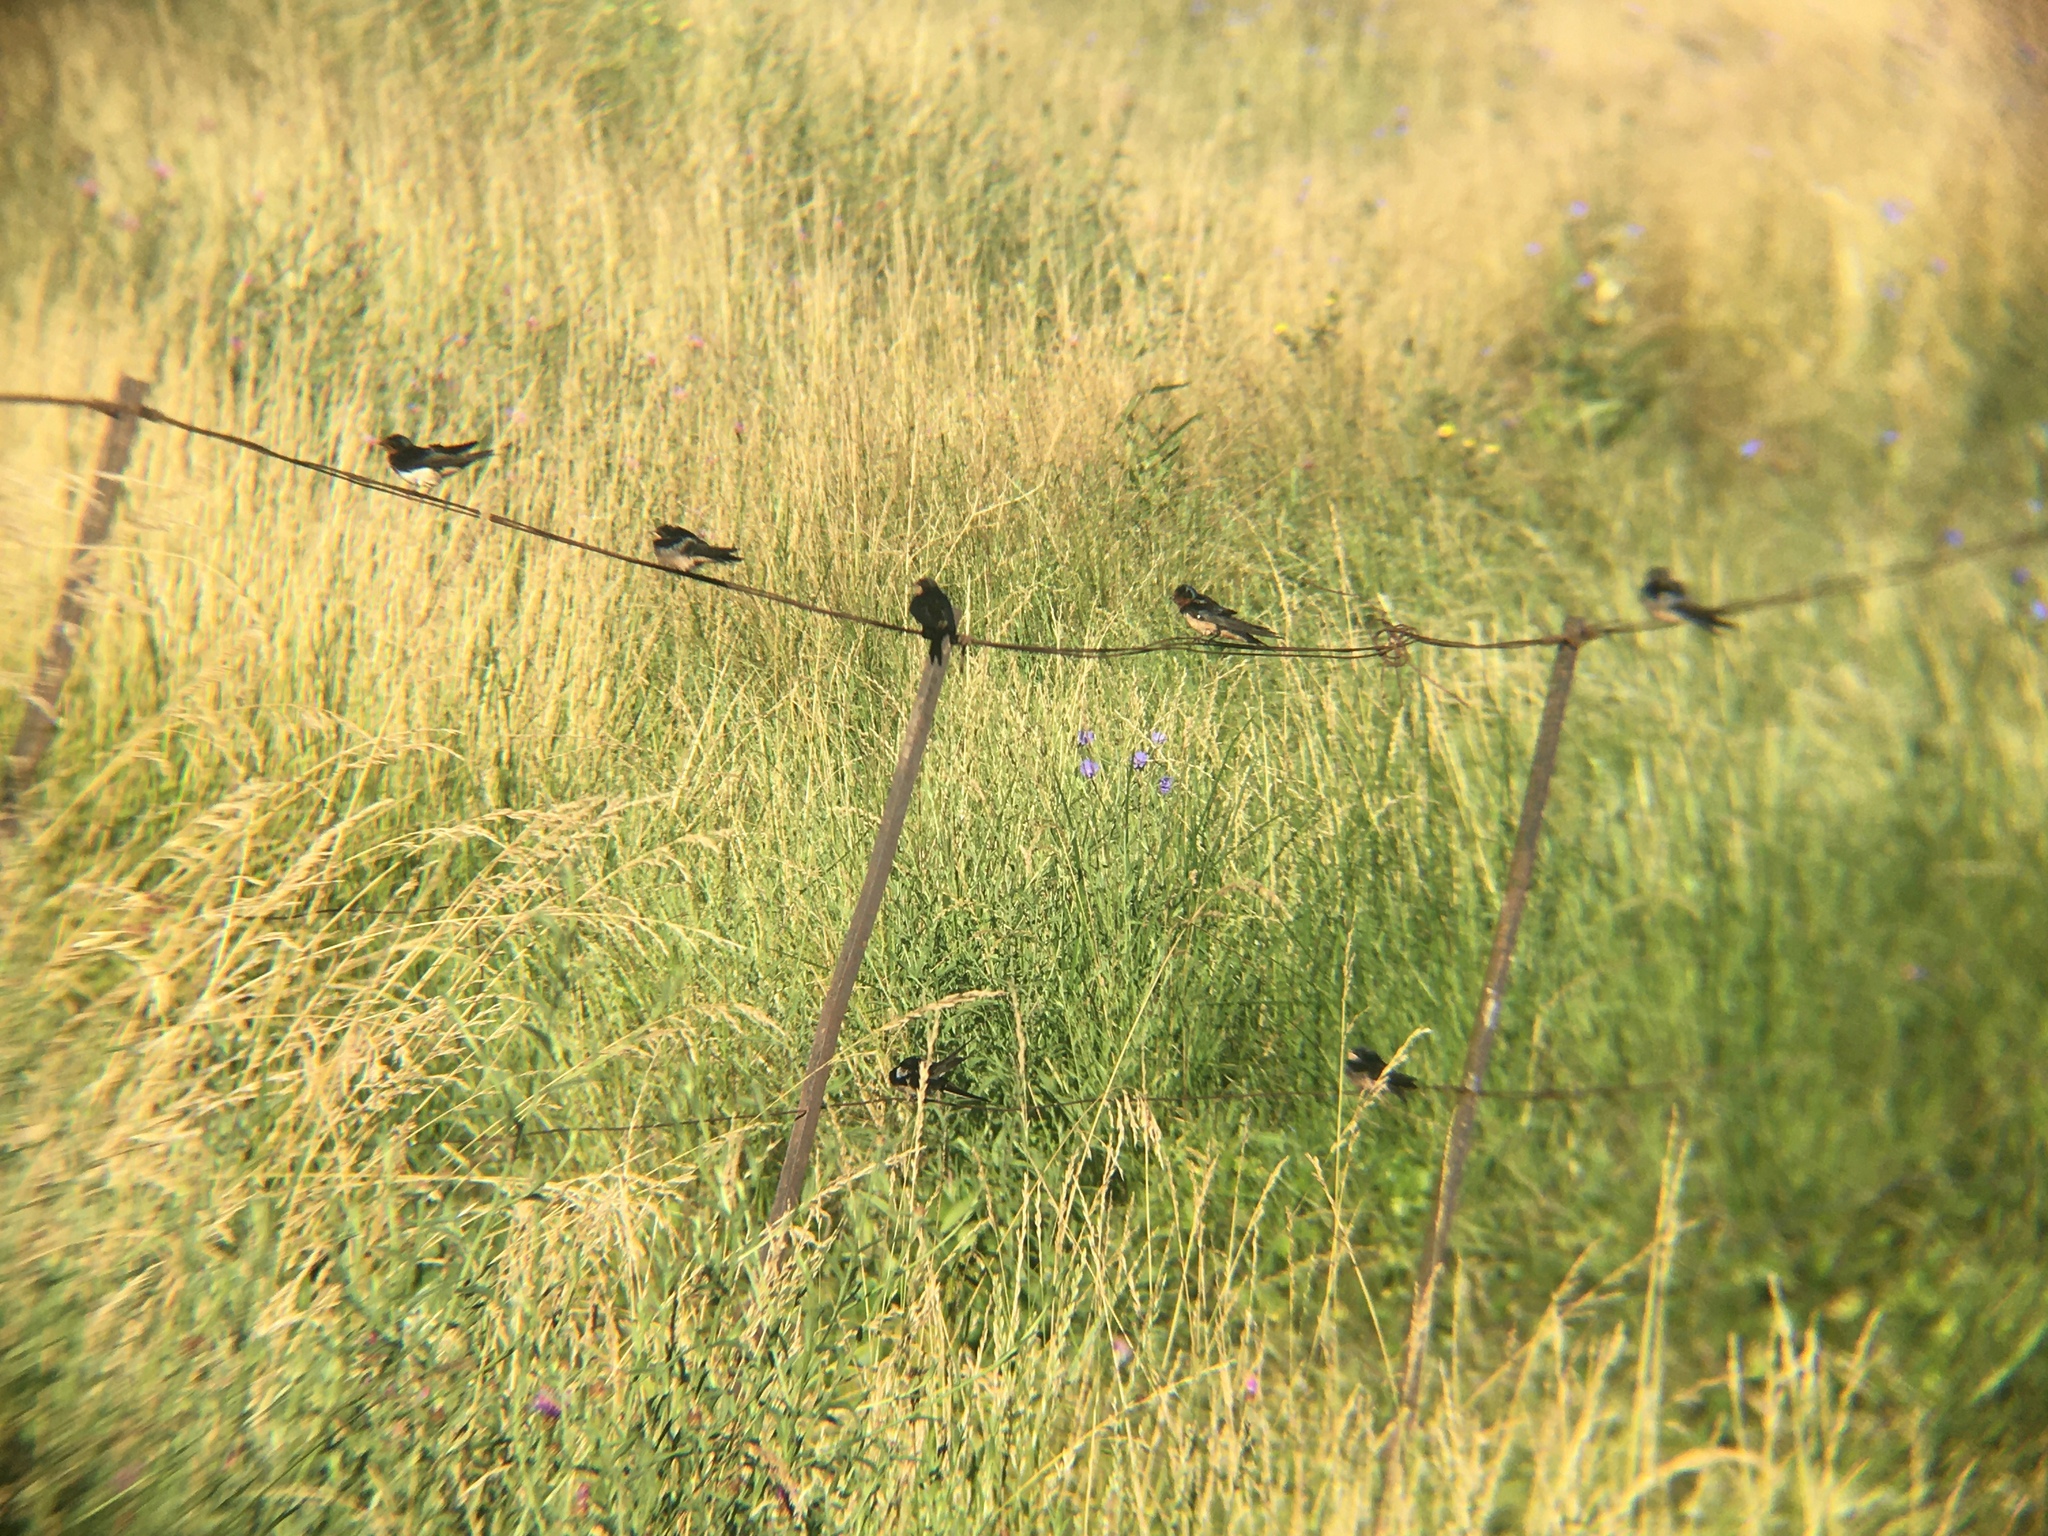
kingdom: Animalia
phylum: Chordata
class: Aves
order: Passeriformes
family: Hirundinidae
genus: Hirundo
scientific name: Hirundo rustica
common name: Barn swallow
